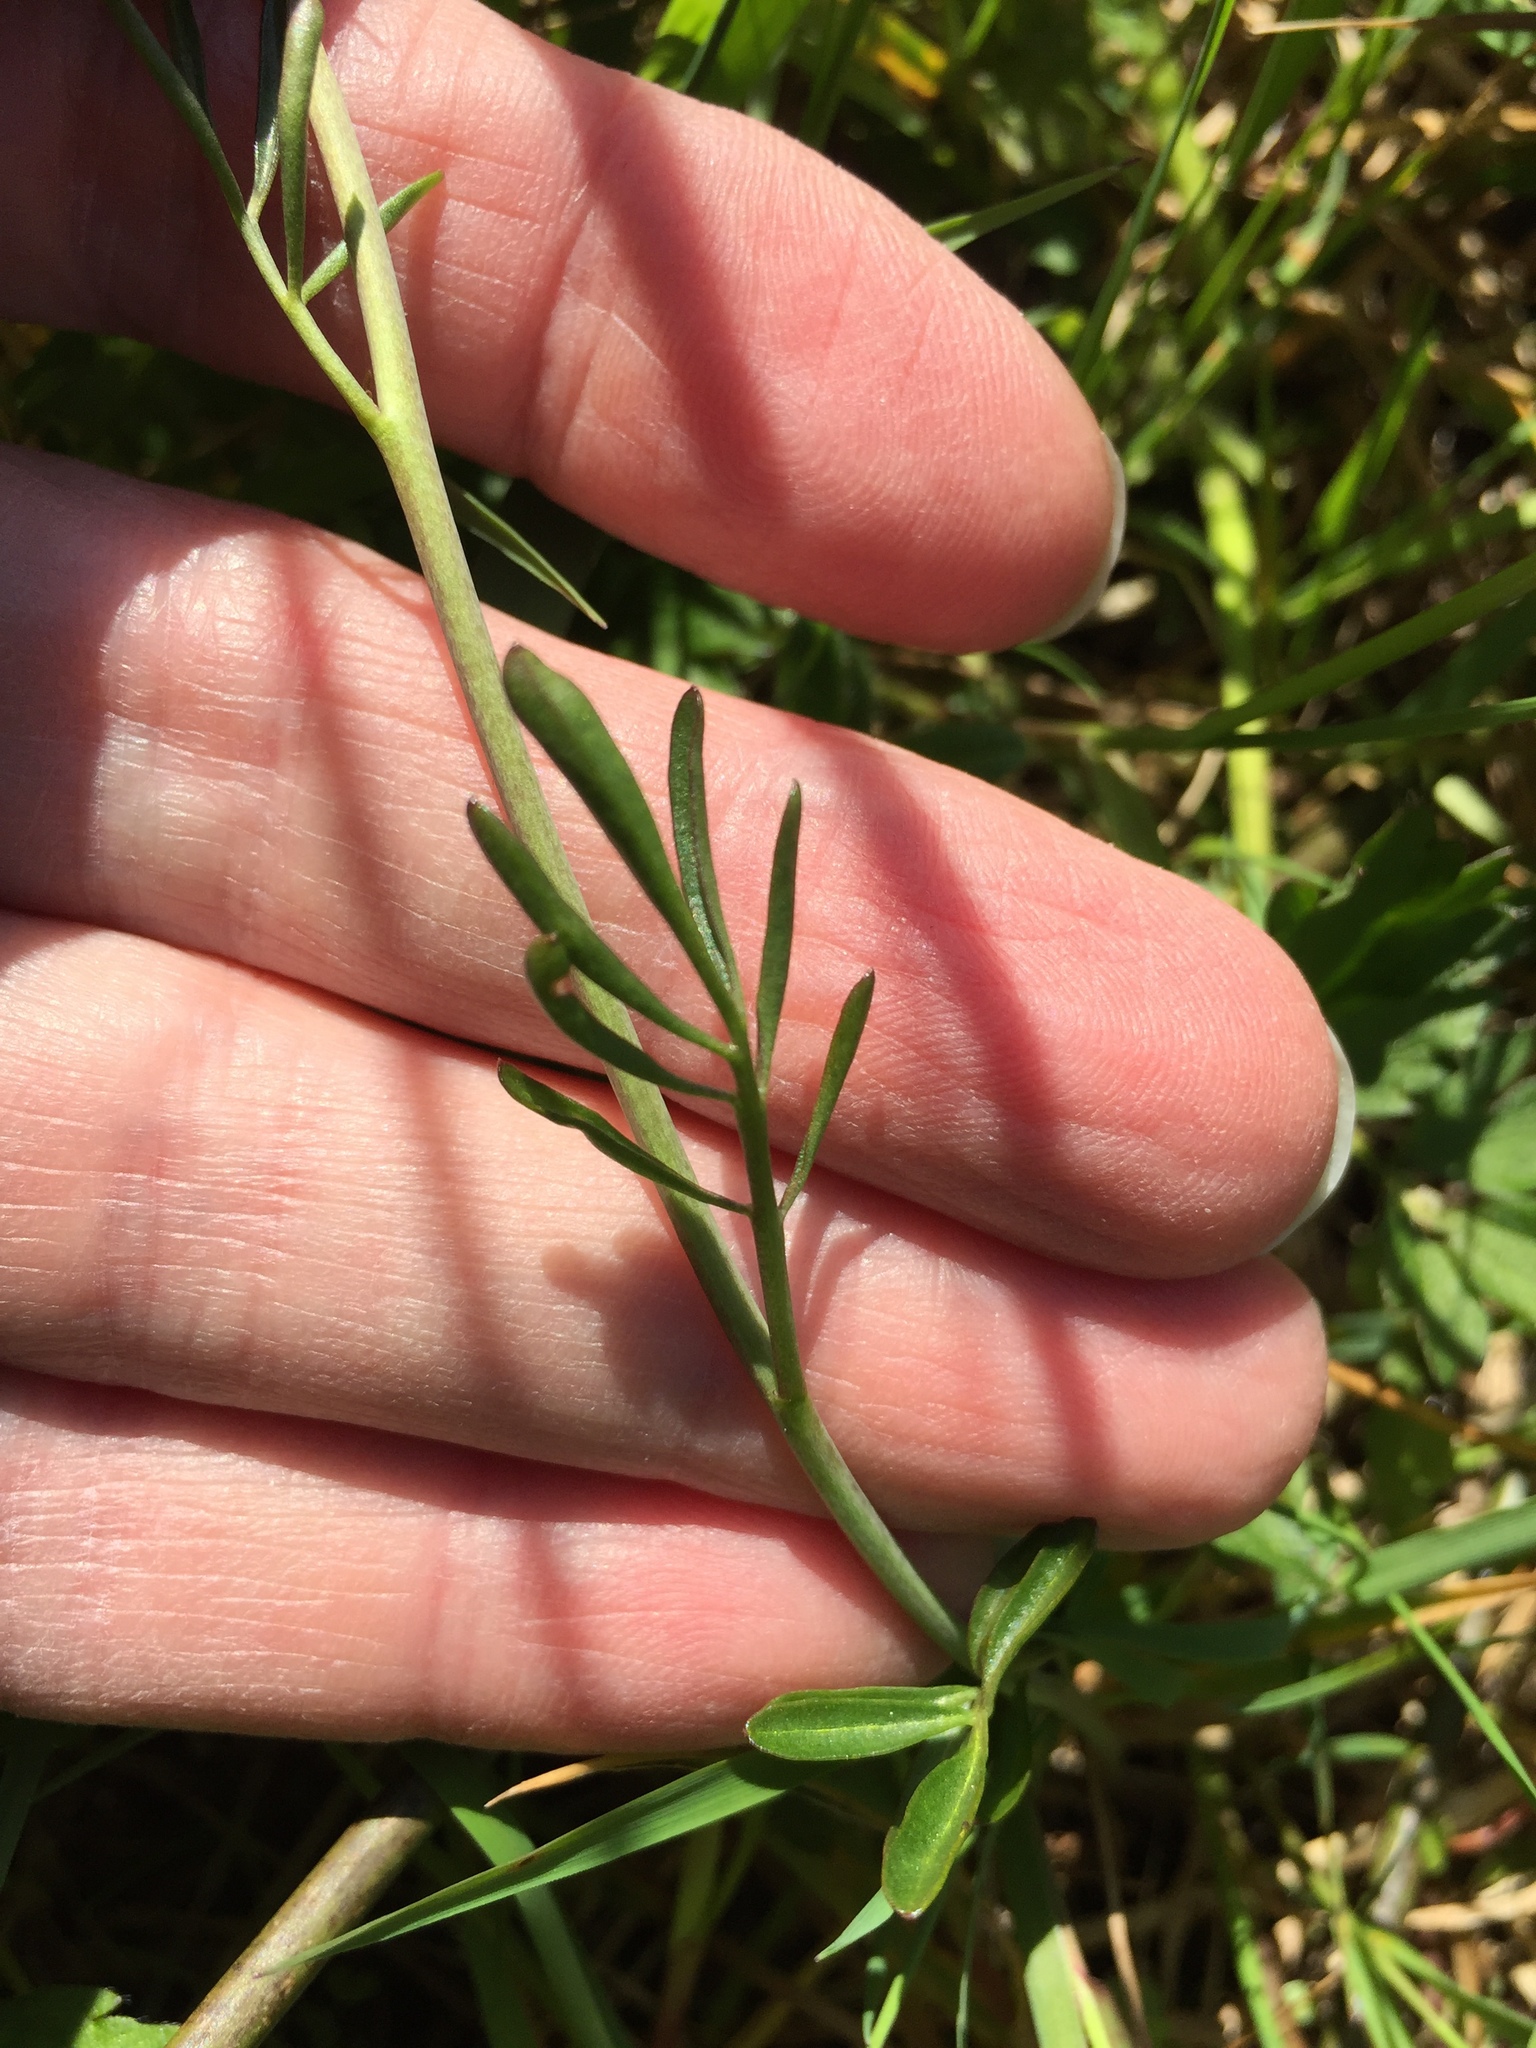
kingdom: Plantae
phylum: Tracheophyta
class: Magnoliopsida
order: Brassicales
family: Brassicaceae
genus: Cardamine
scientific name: Cardamine pratensis
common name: Cuckoo flower
